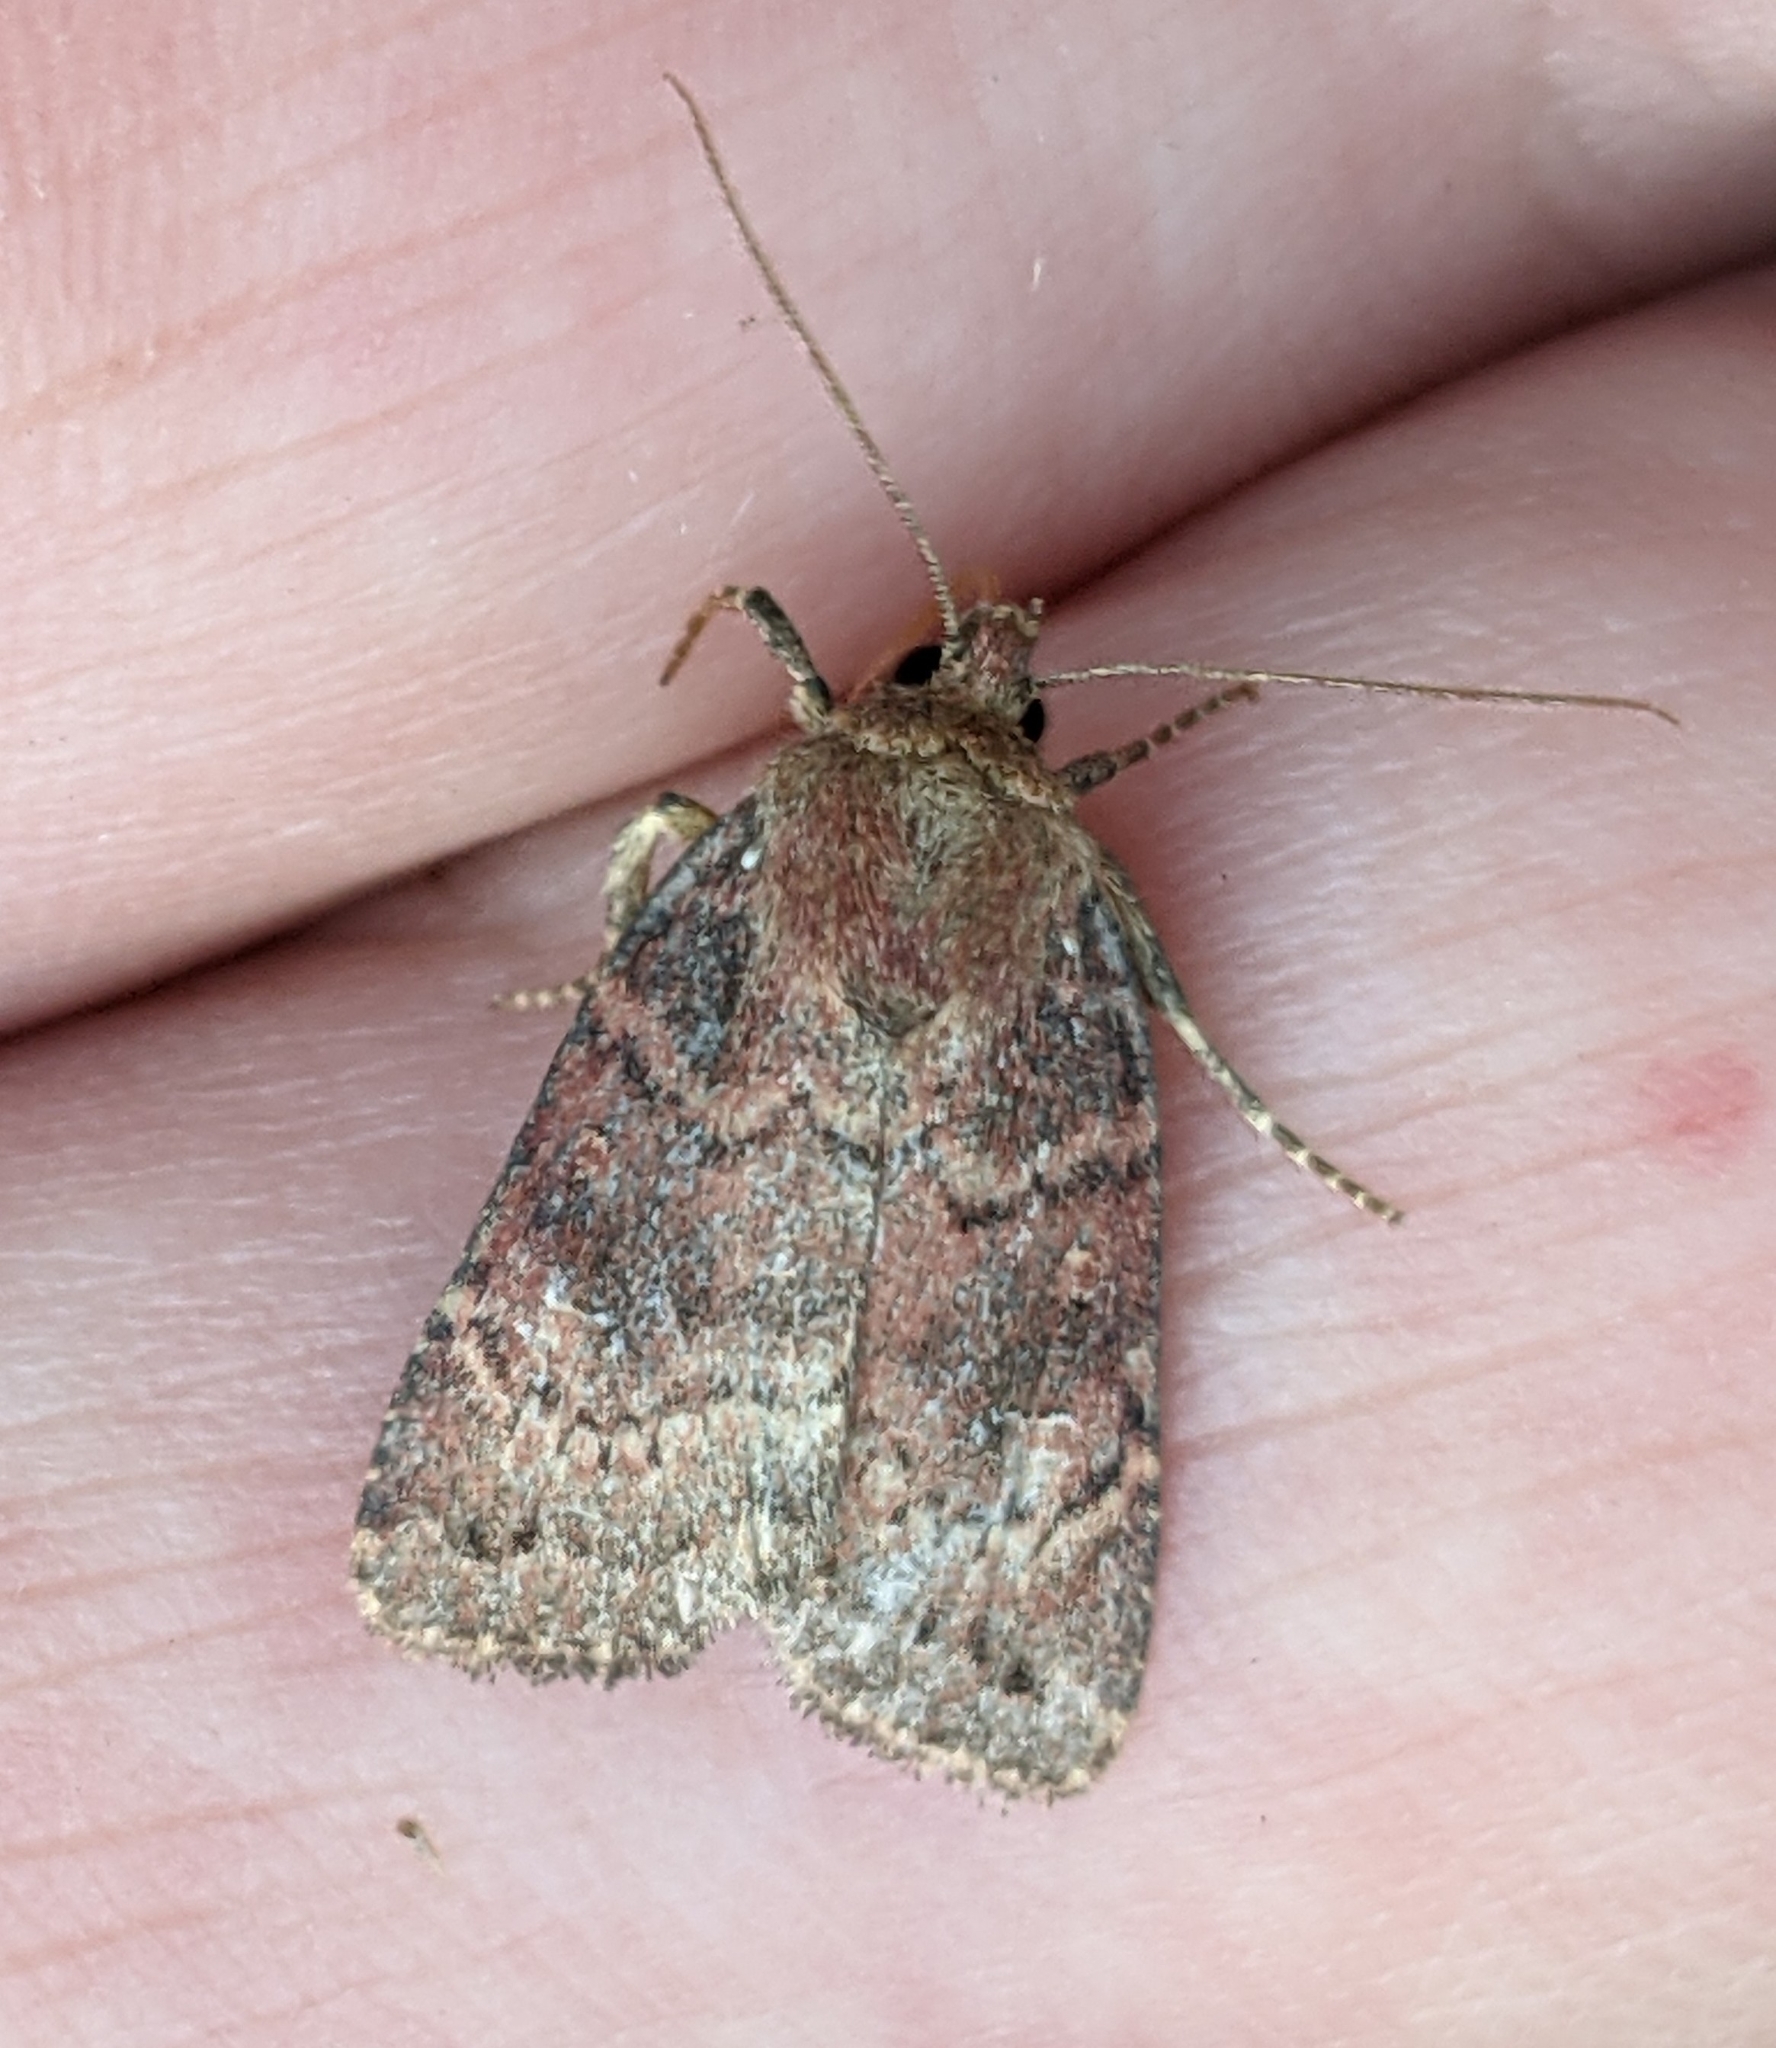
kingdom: Animalia
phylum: Arthropoda
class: Insecta
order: Lepidoptera
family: Noctuidae
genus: Anhimella
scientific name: Anhimella perbrunnea
